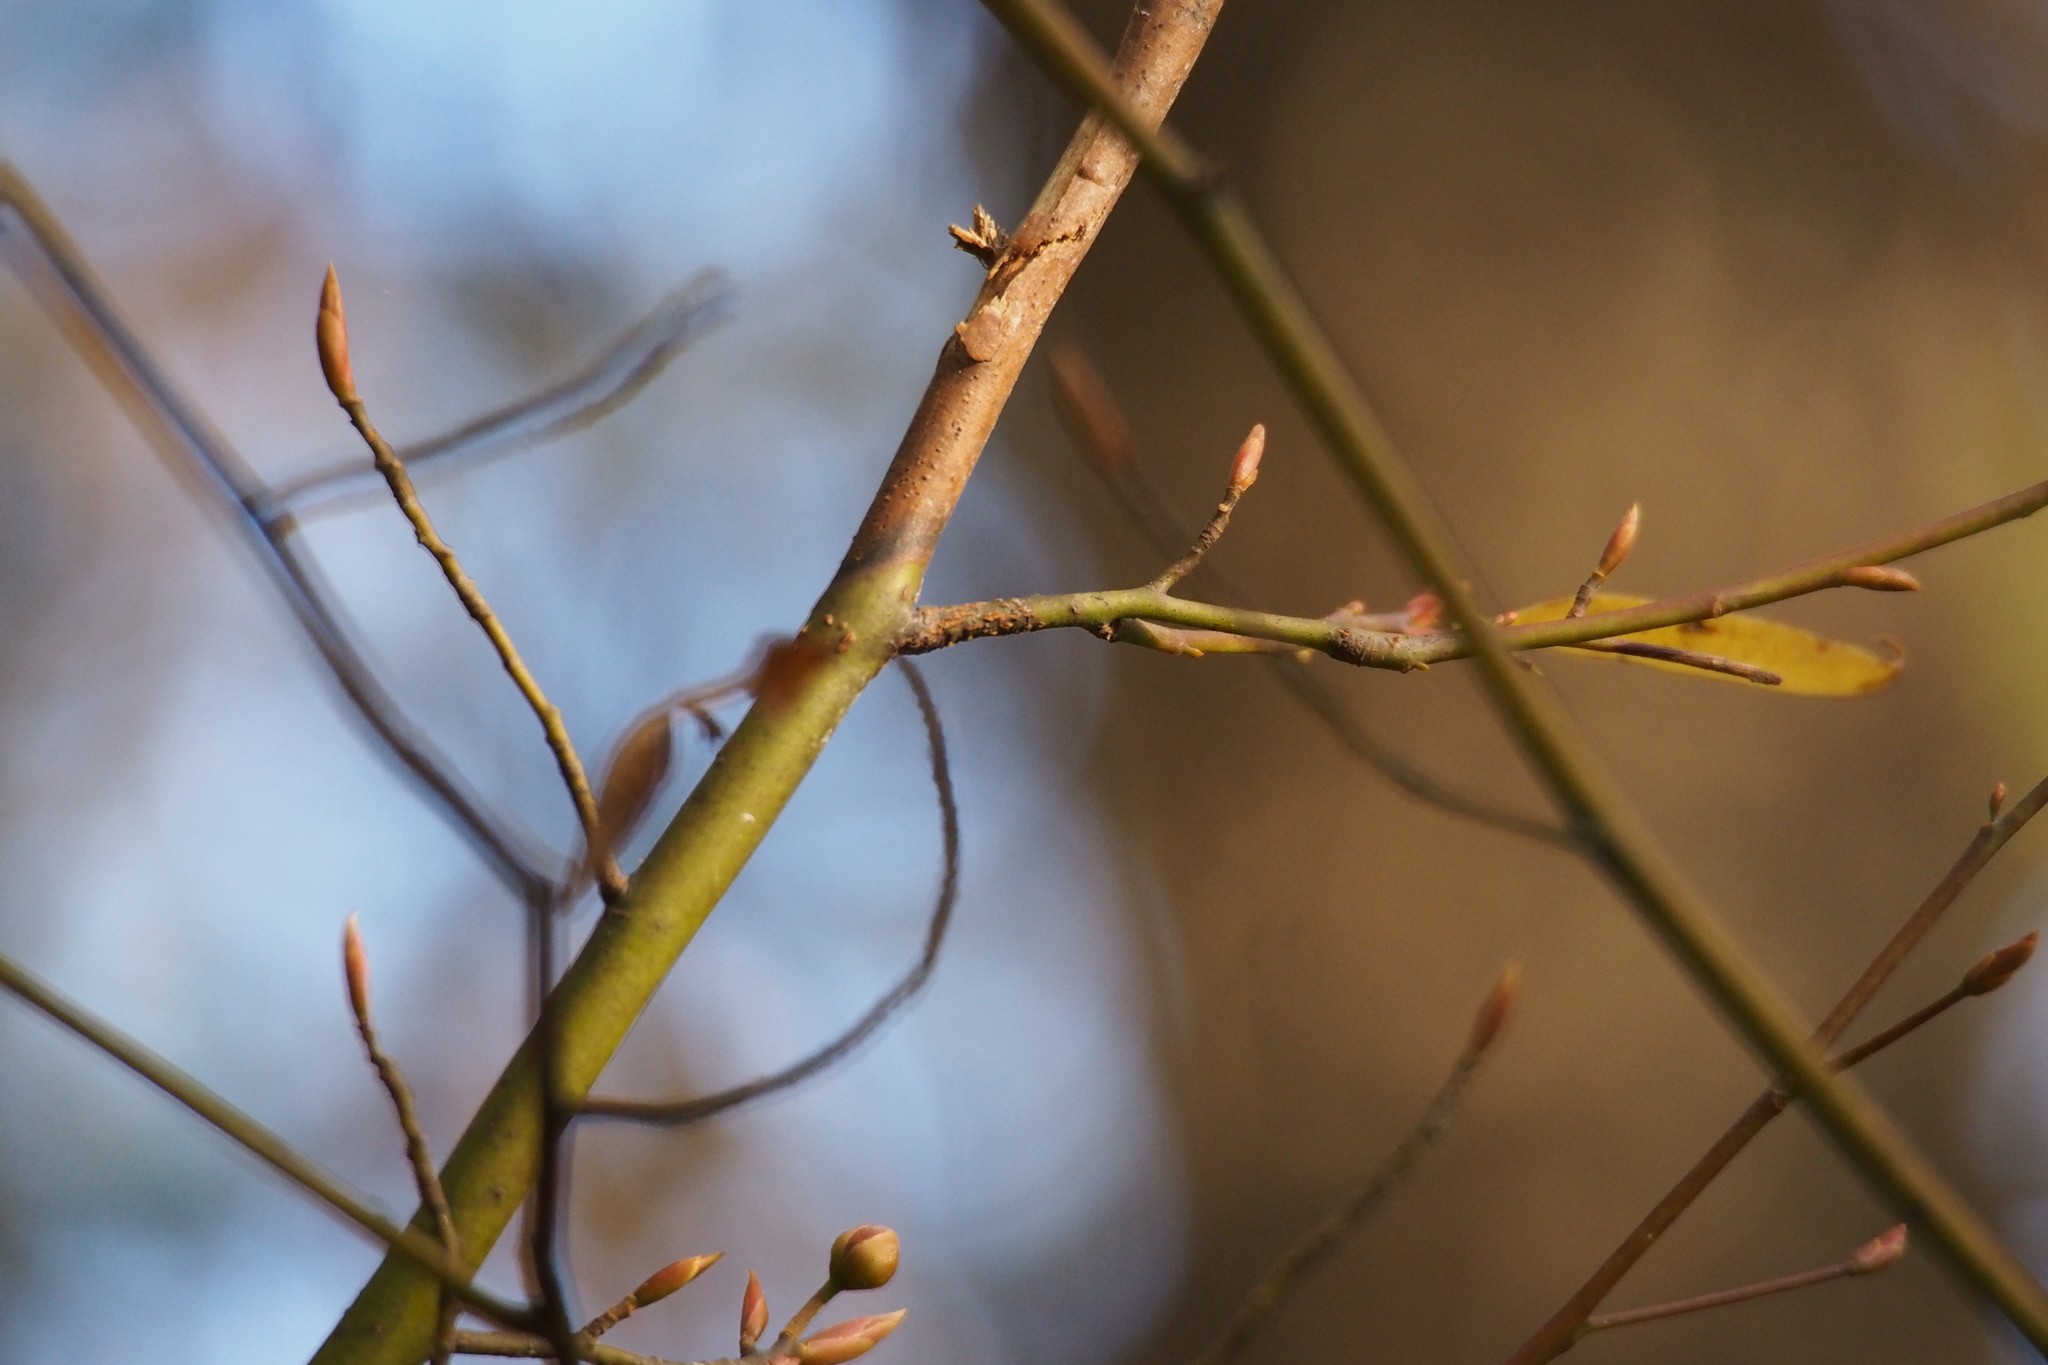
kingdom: Plantae
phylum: Tracheophyta
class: Magnoliopsida
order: Laurales
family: Lauraceae
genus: Lindera
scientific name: Lindera umbellata
